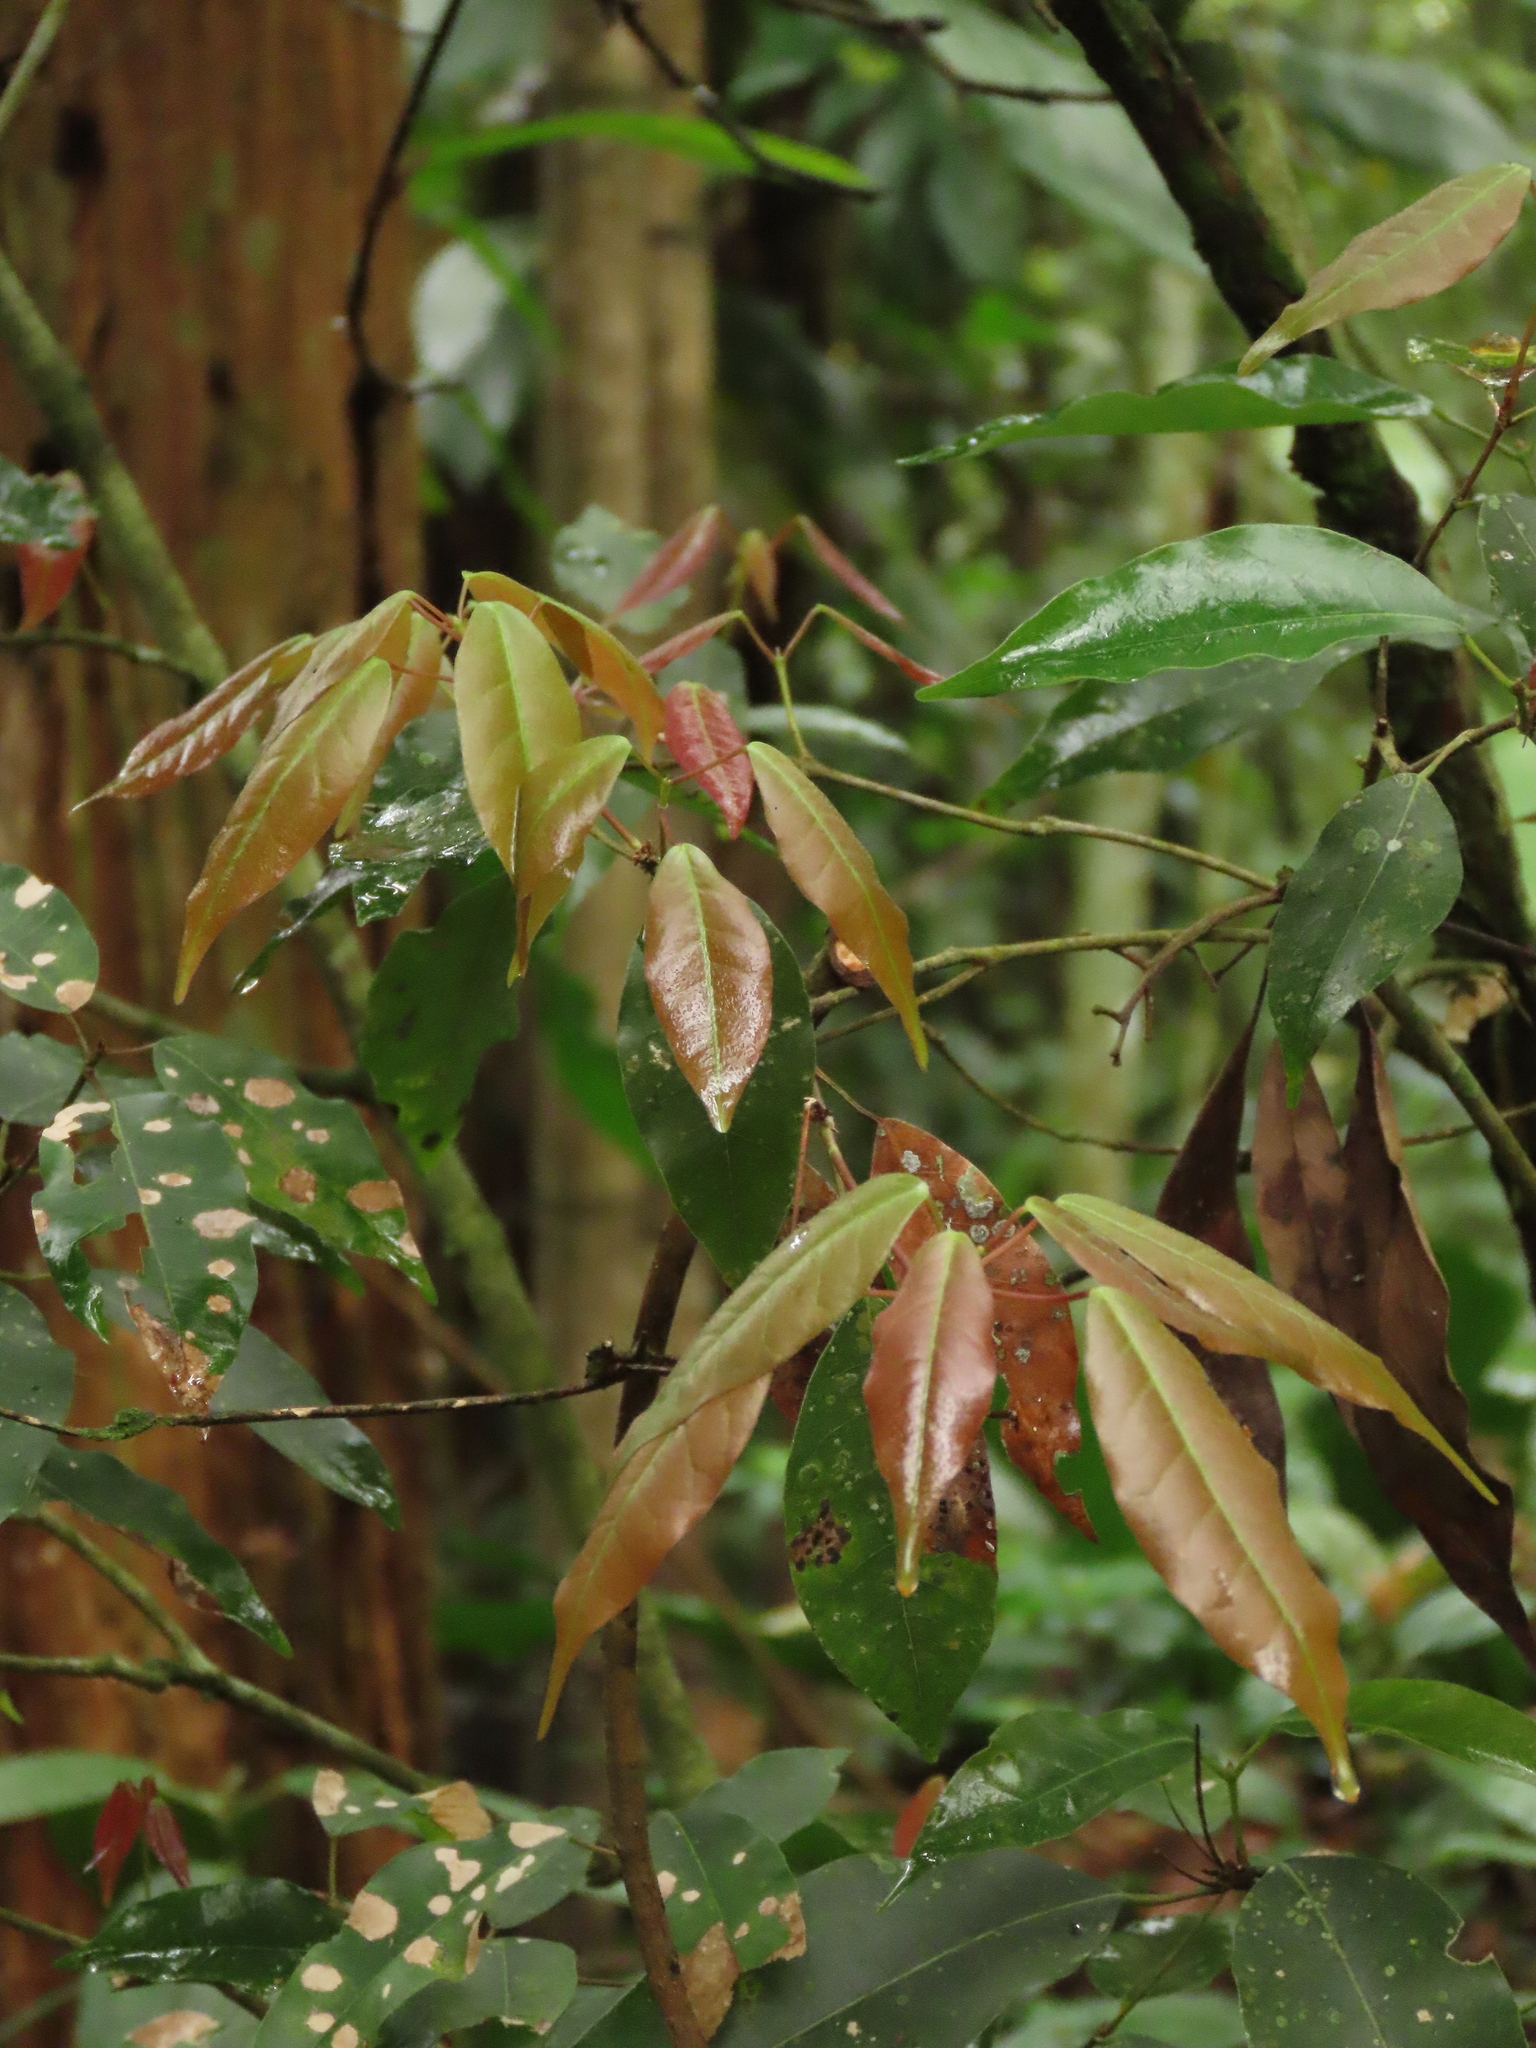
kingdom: Plantae
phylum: Tracheophyta
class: Magnoliopsida
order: Sapindales
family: Sapindaceae
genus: Acer
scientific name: Acer oblongum
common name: Himalayan maple
